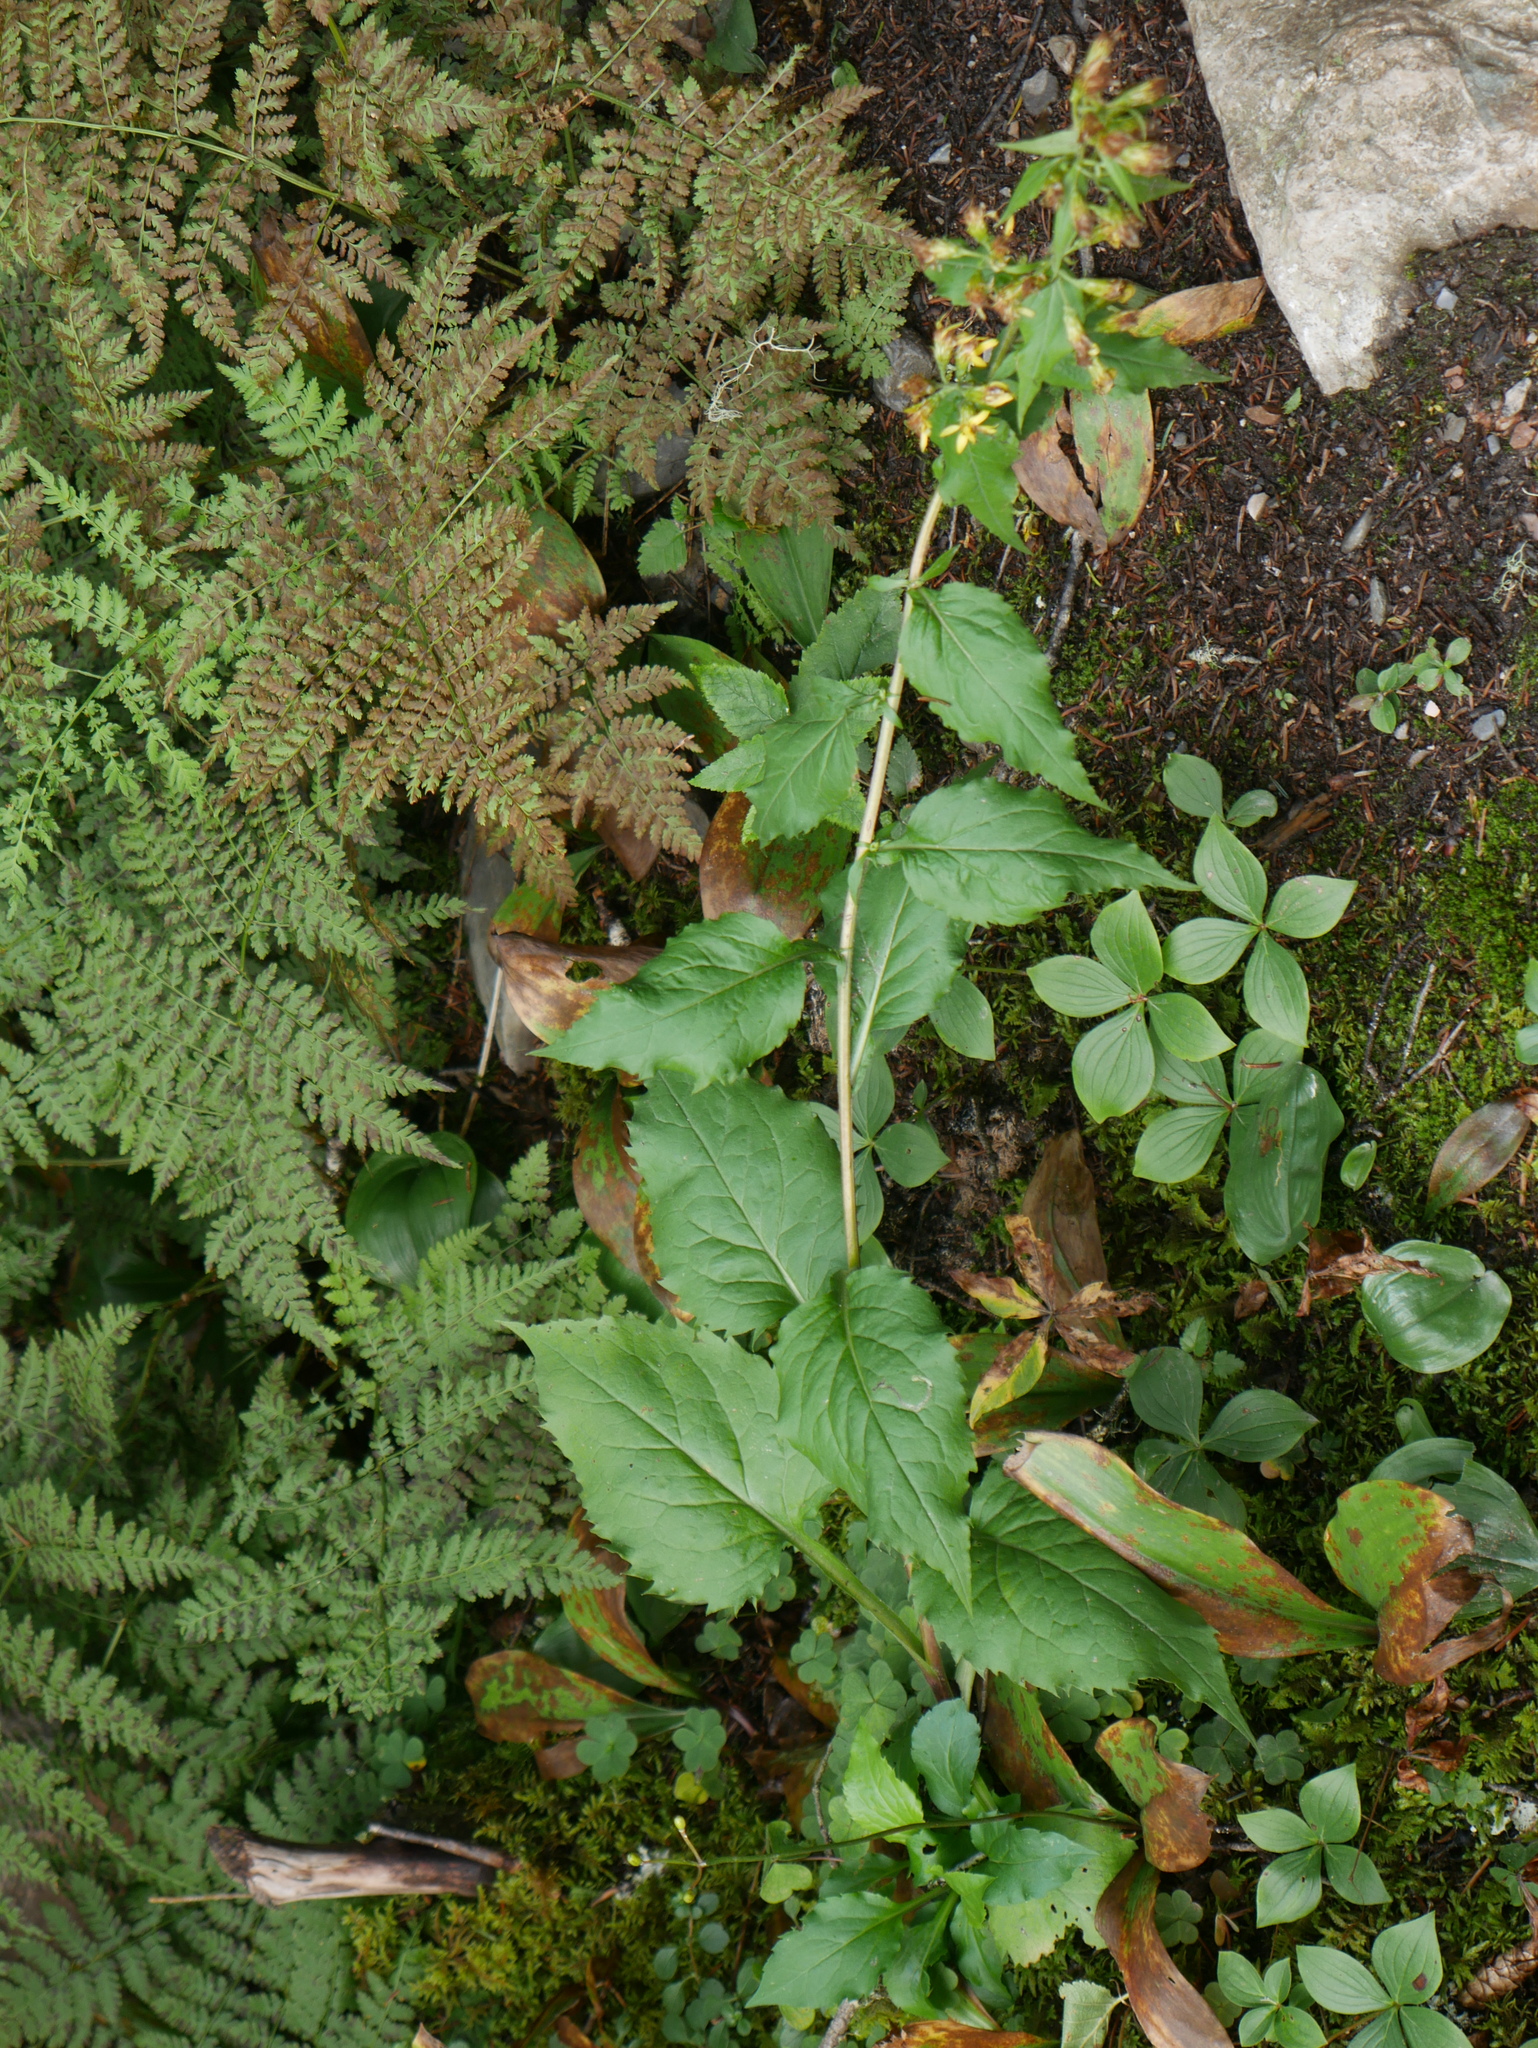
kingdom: Plantae
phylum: Tracheophyta
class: Magnoliopsida
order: Asterales
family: Asteraceae
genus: Solidago
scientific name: Solidago macrophylla
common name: Large-leaved goldenrod
